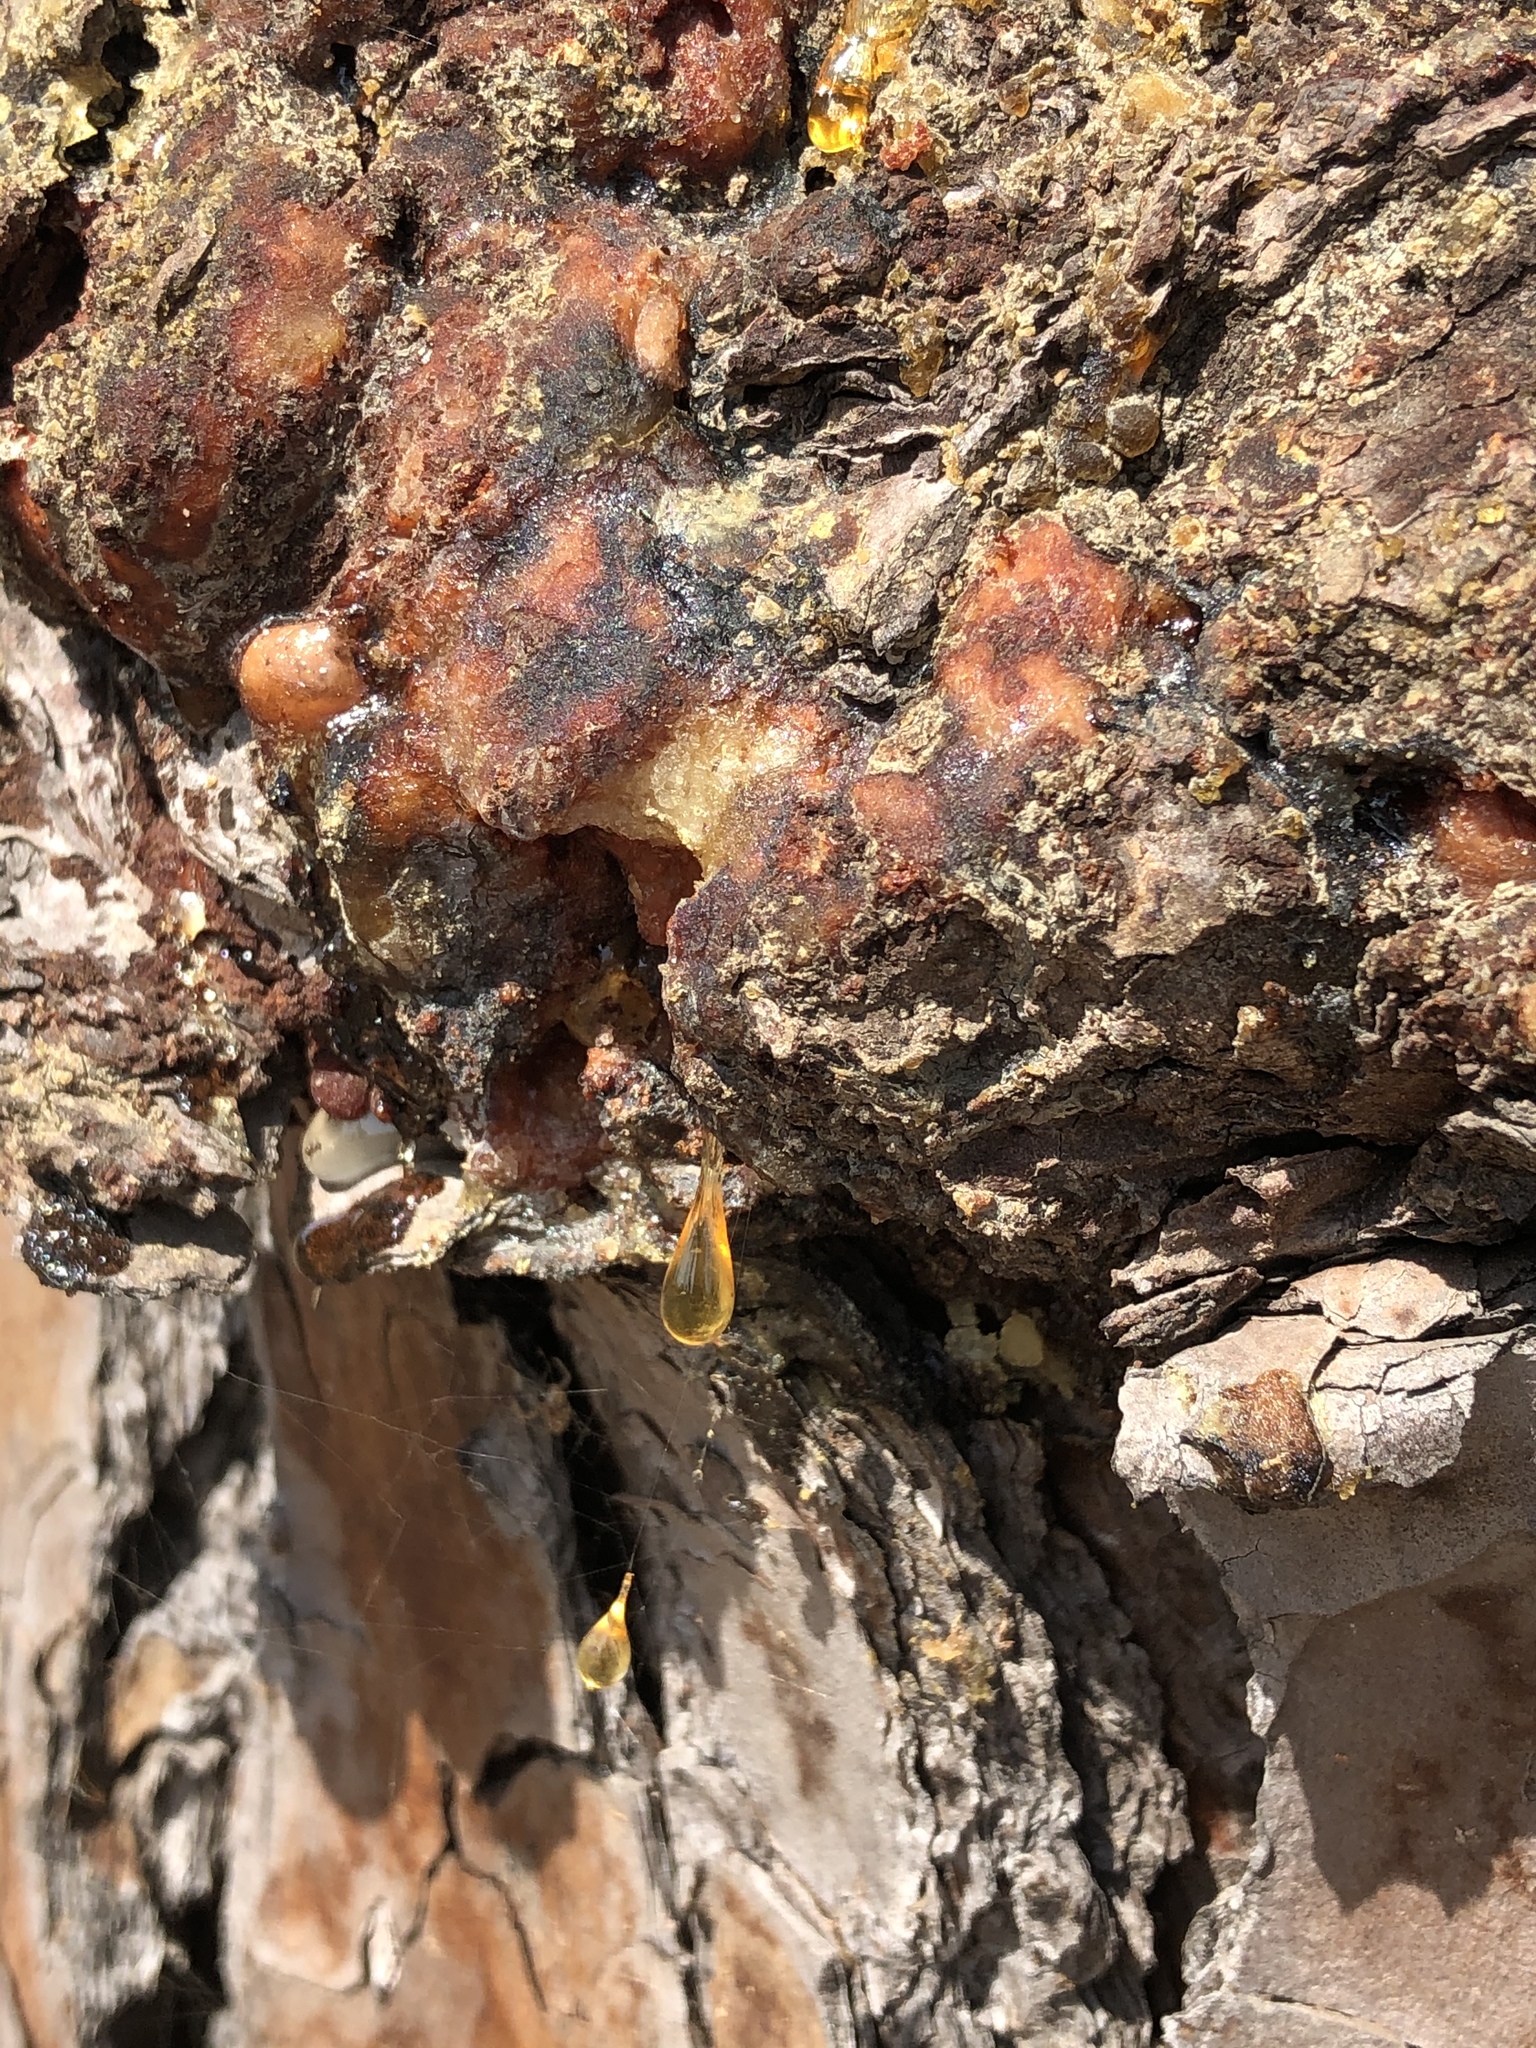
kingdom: Plantae
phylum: Tracheophyta
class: Pinopsida
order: Pinales
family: Pinaceae
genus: Pinus
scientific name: Pinus taeda
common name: Loblolly pine
